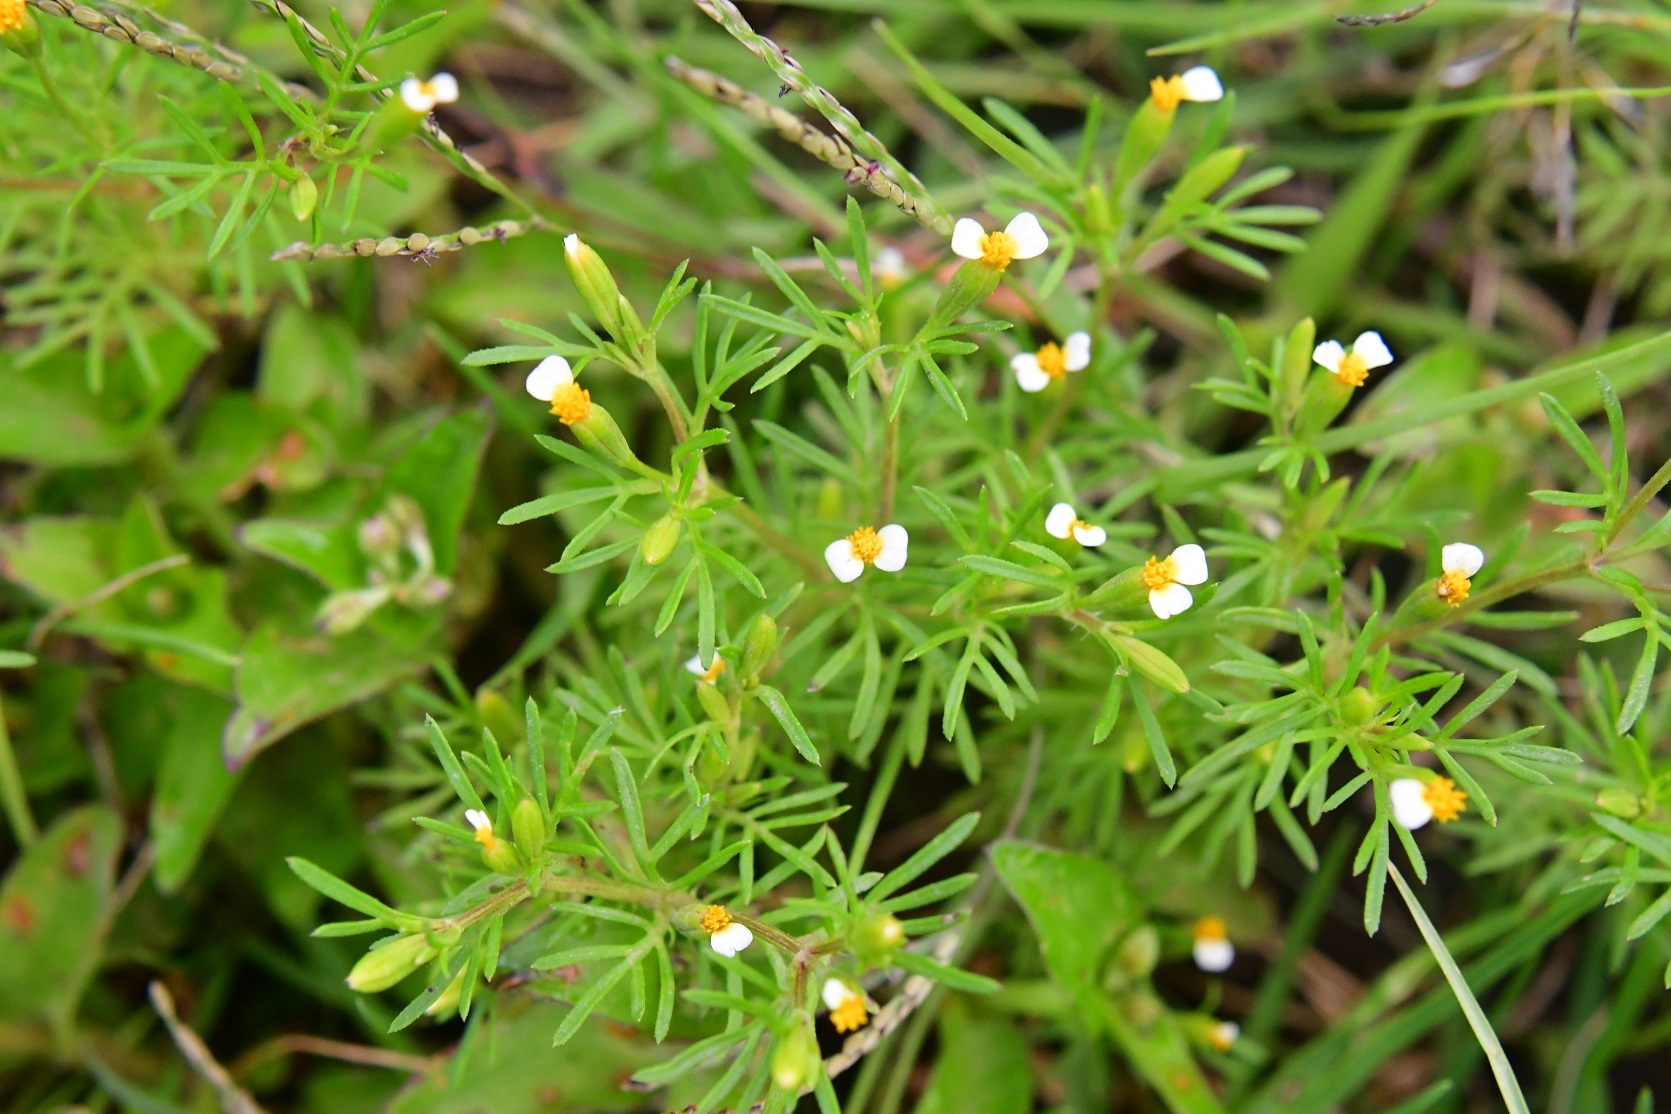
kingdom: Plantae
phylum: Tracheophyta
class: Magnoliopsida
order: Asterales
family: Asteraceae
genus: Tagetes
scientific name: Tagetes filifolia
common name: Lesser marigold
